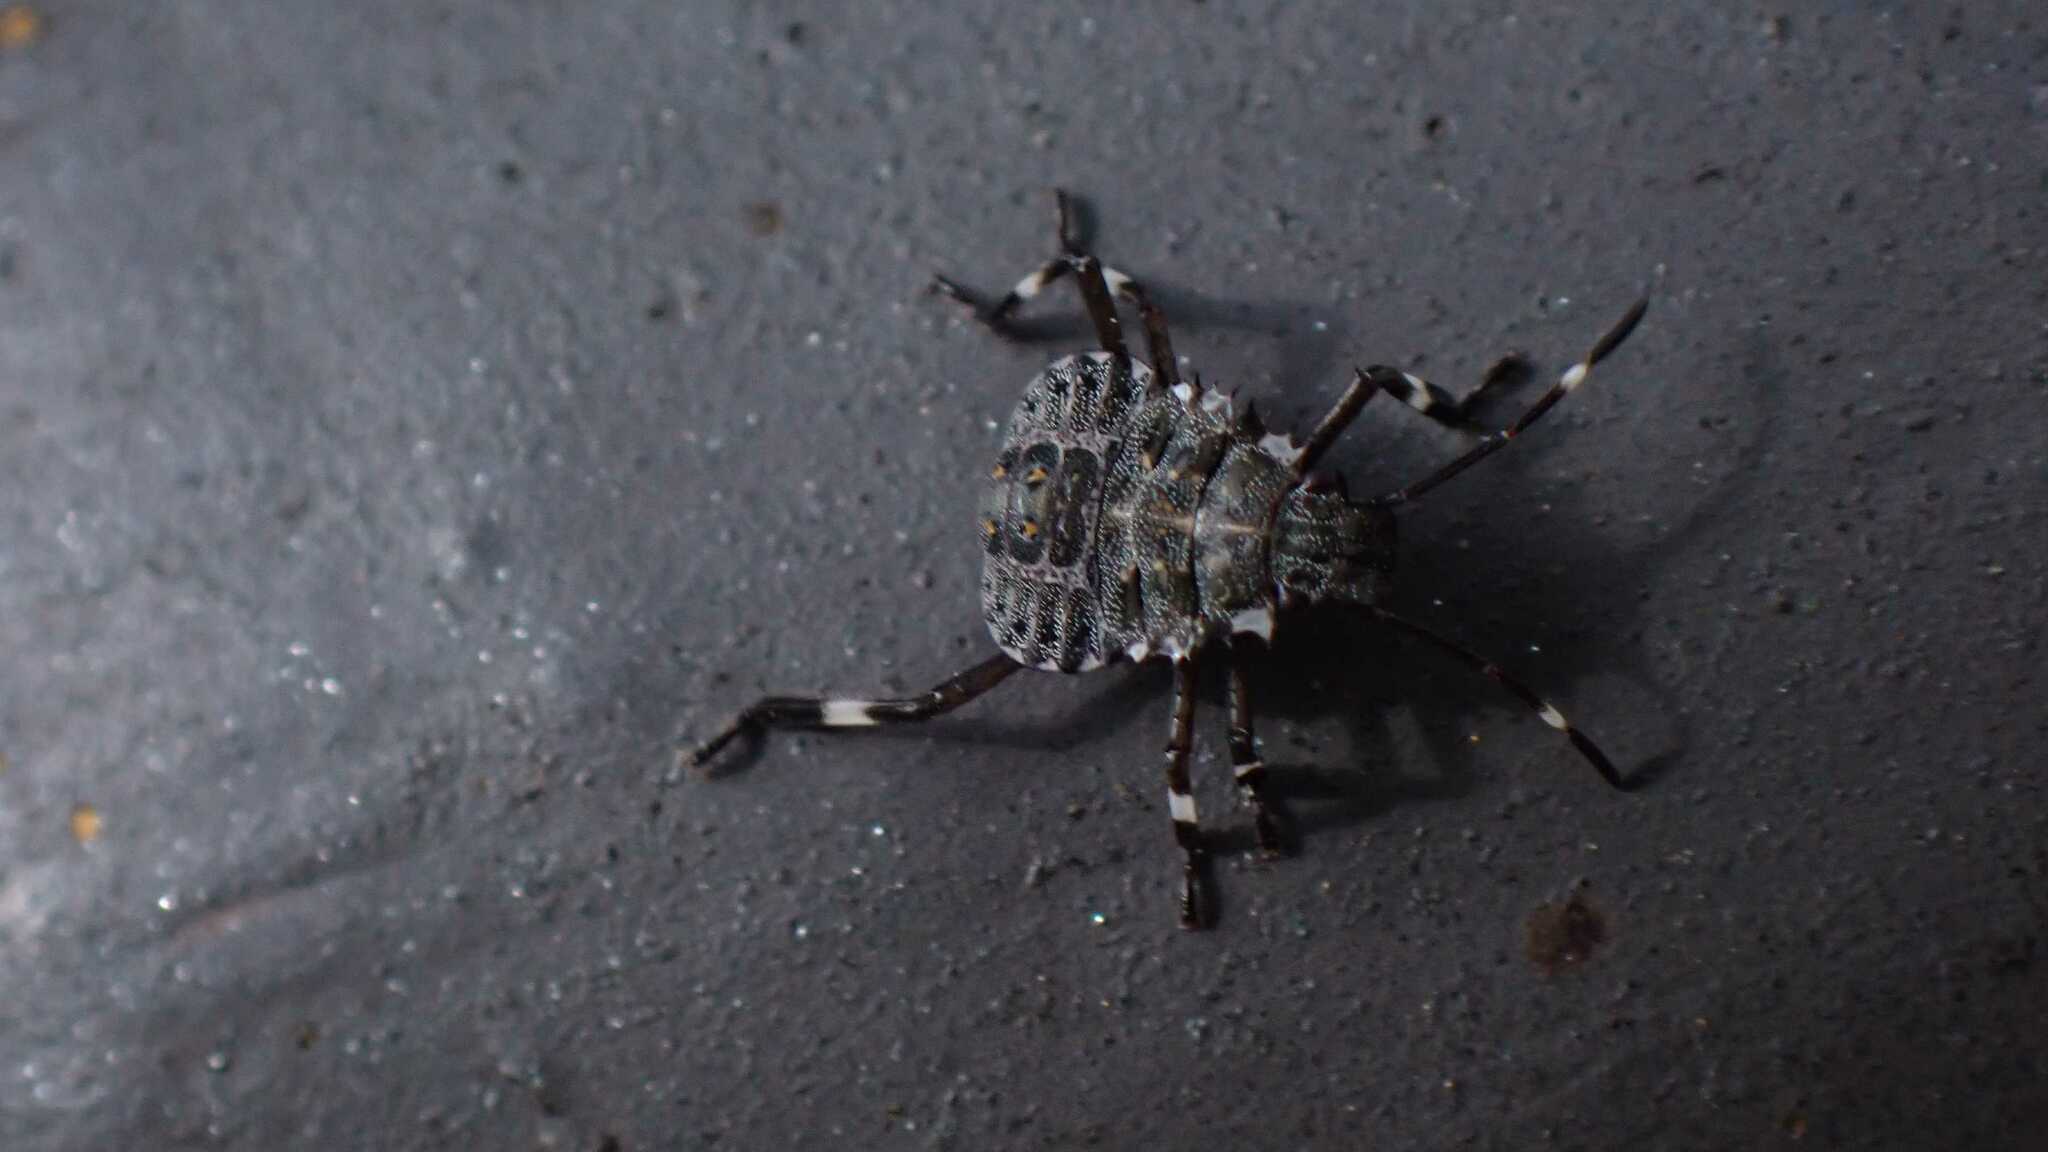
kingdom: Animalia
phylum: Arthropoda
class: Insecta
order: Hemiptera
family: Pentatomidae
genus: Halyomorpha
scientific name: Halyomorpha halys
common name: Brown marmorated stink bug
